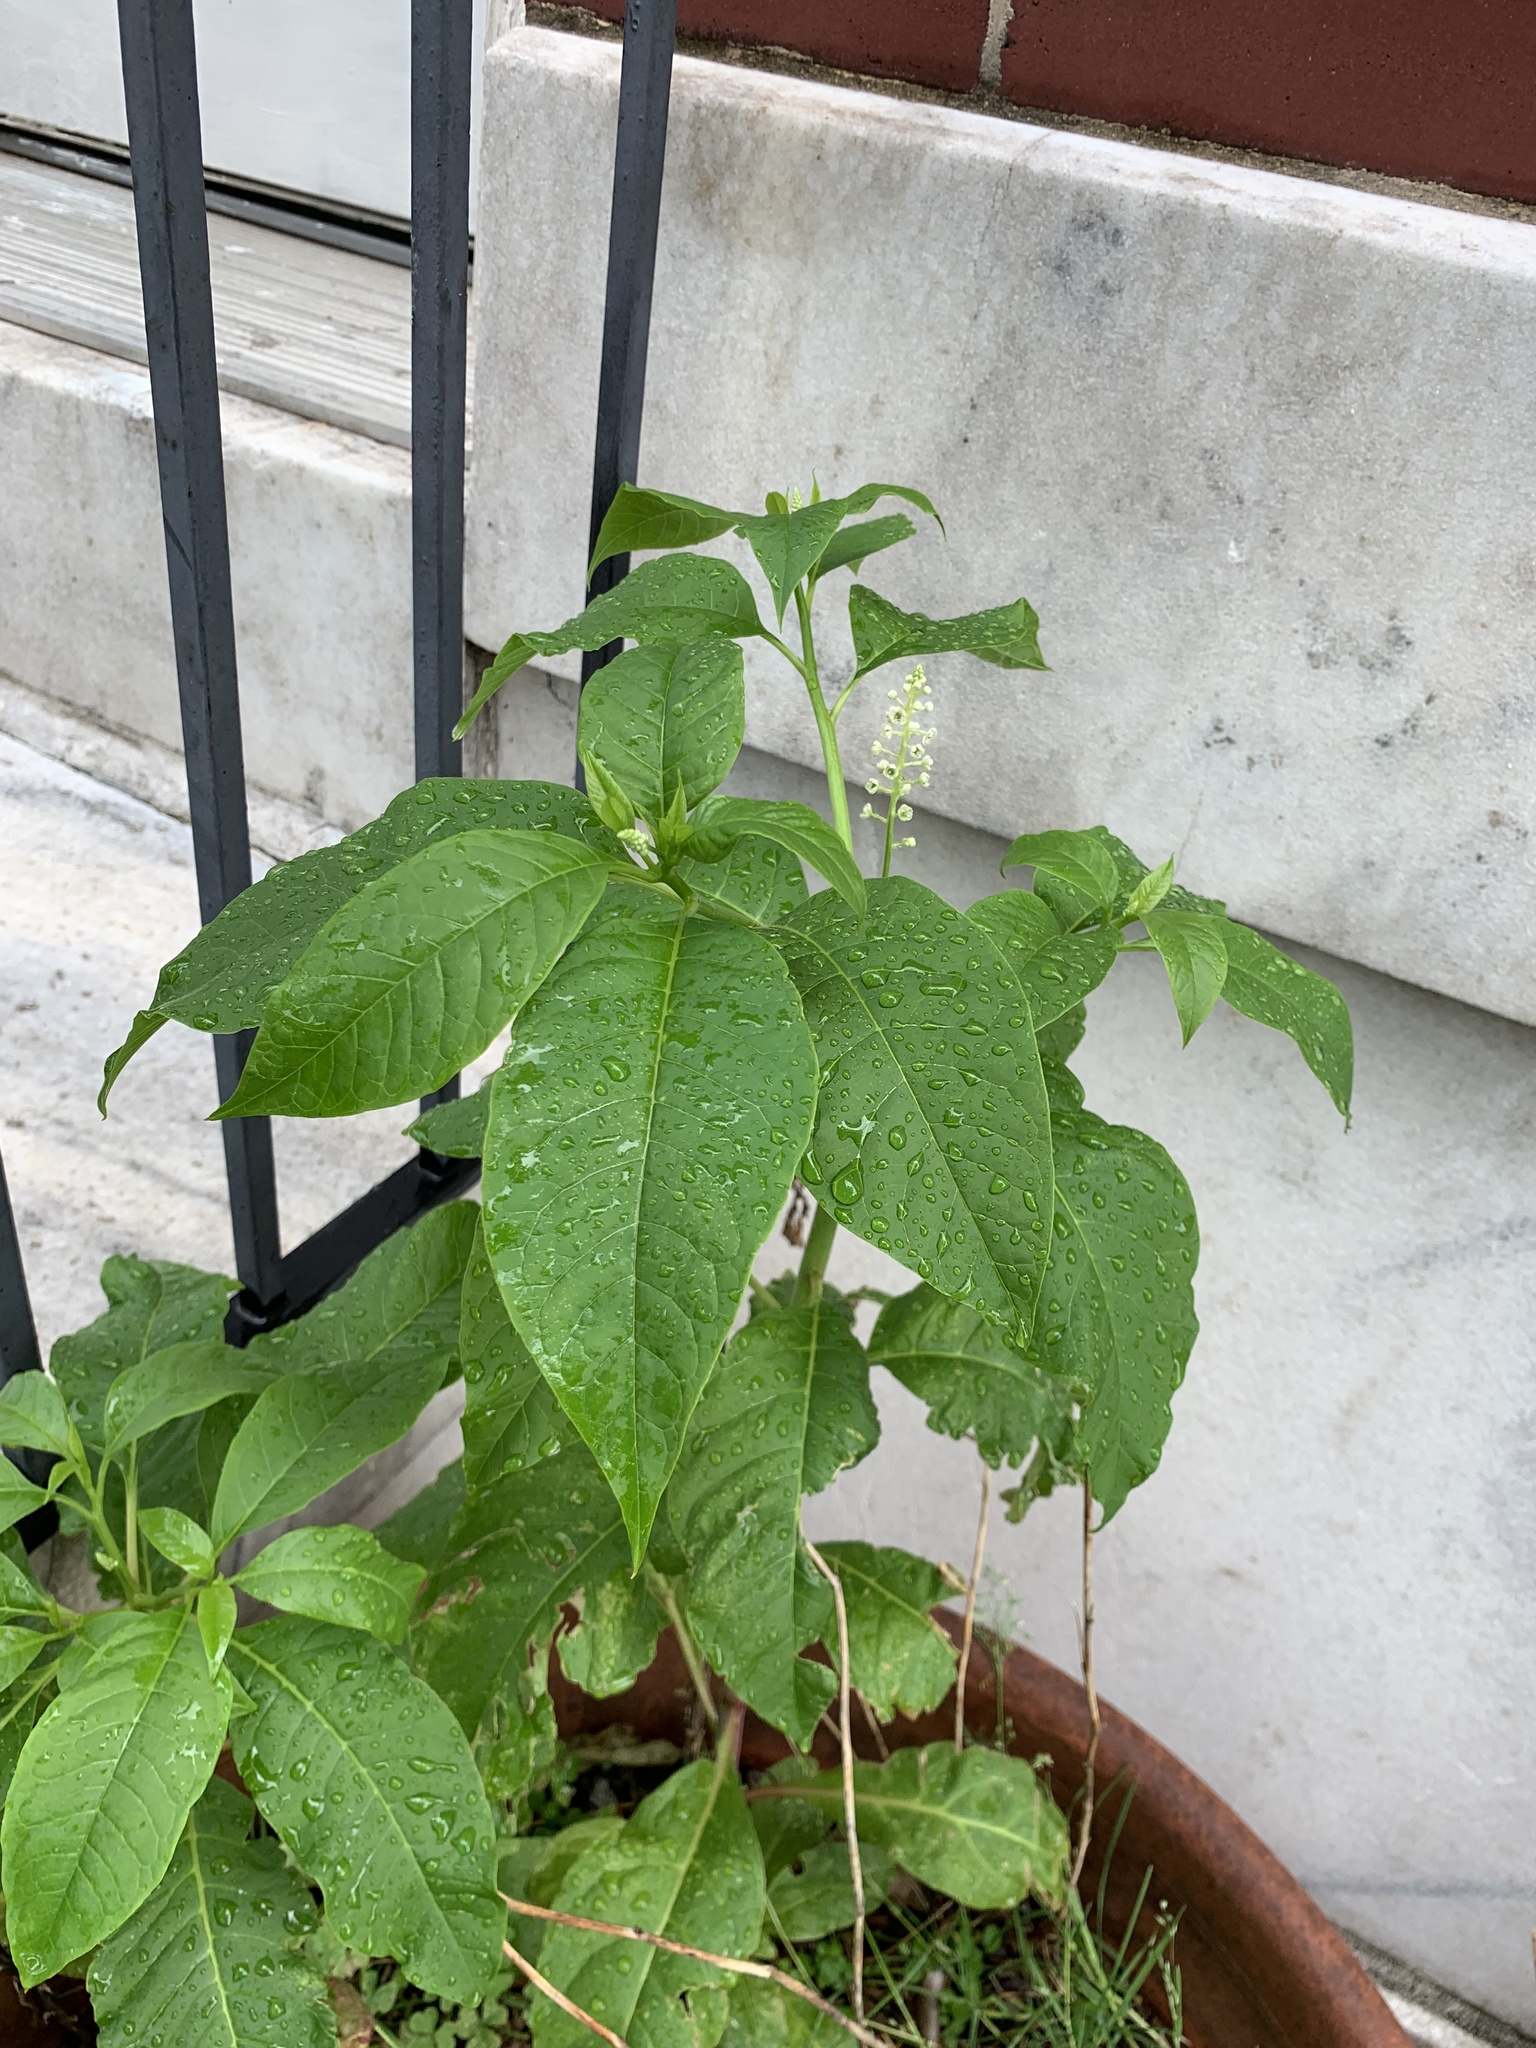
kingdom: Plantae
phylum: Tracheophyta
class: Magnoliopsida
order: Caryophyllales
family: Phytolaccaceae
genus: Phytolacca
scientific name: Phytolacca americana
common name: American pokeweed
